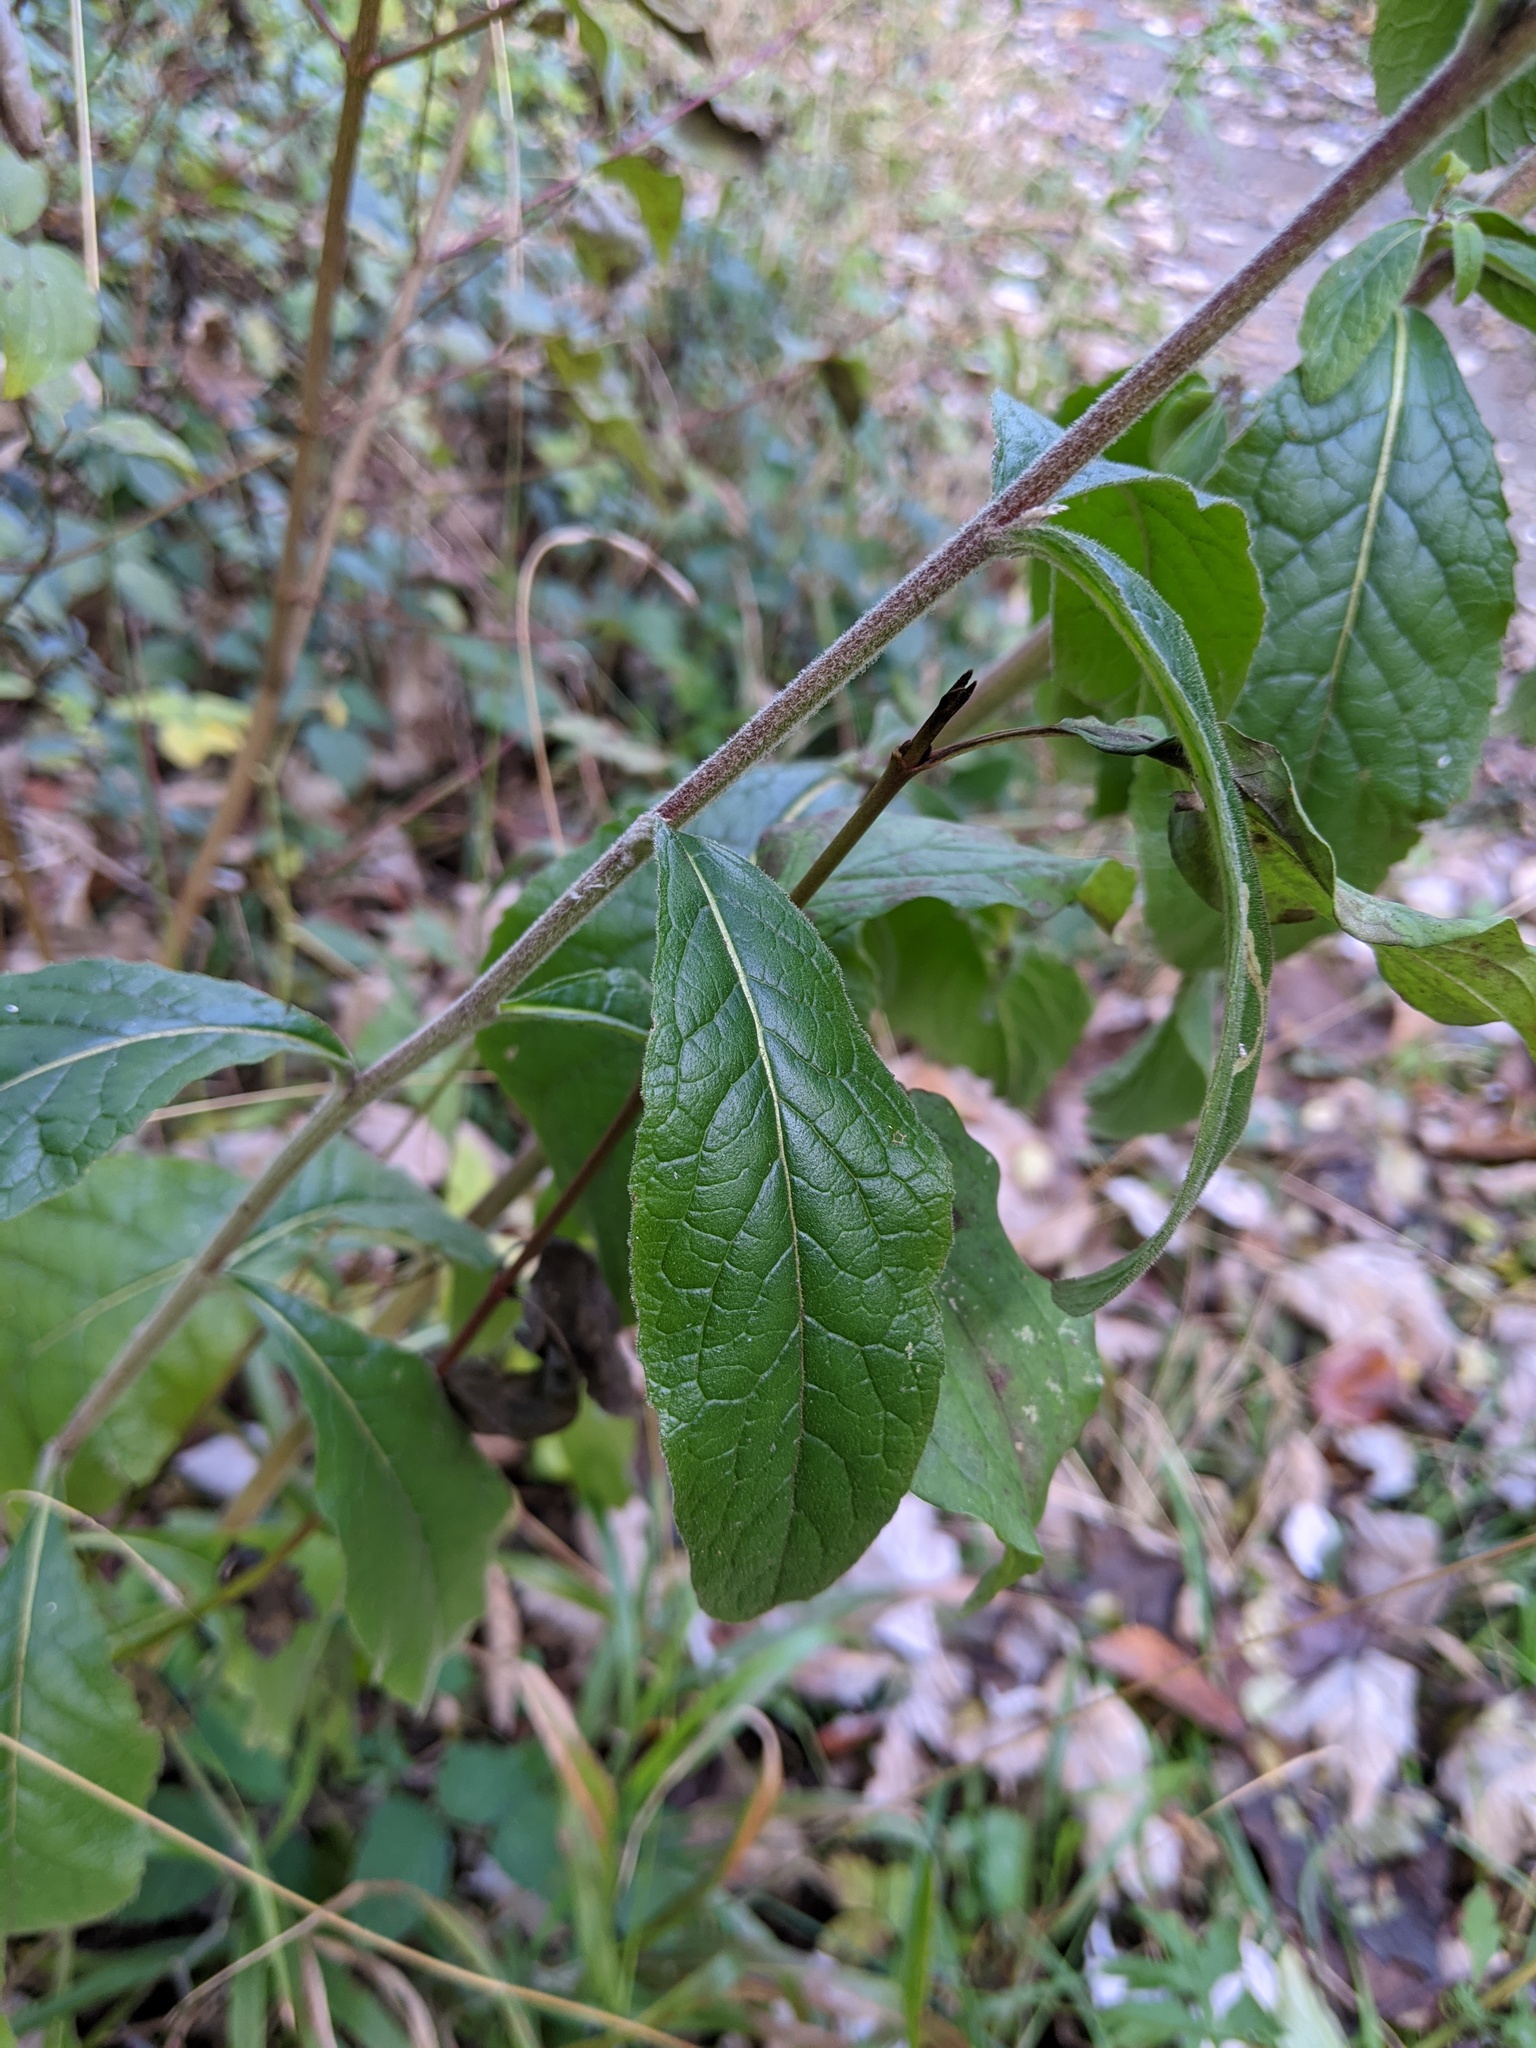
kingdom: Plantae
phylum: Tracheophyta
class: Magnoliopsida
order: Asterales
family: Asteraceae
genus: Pentanema
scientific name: Pentanema squarrosum
